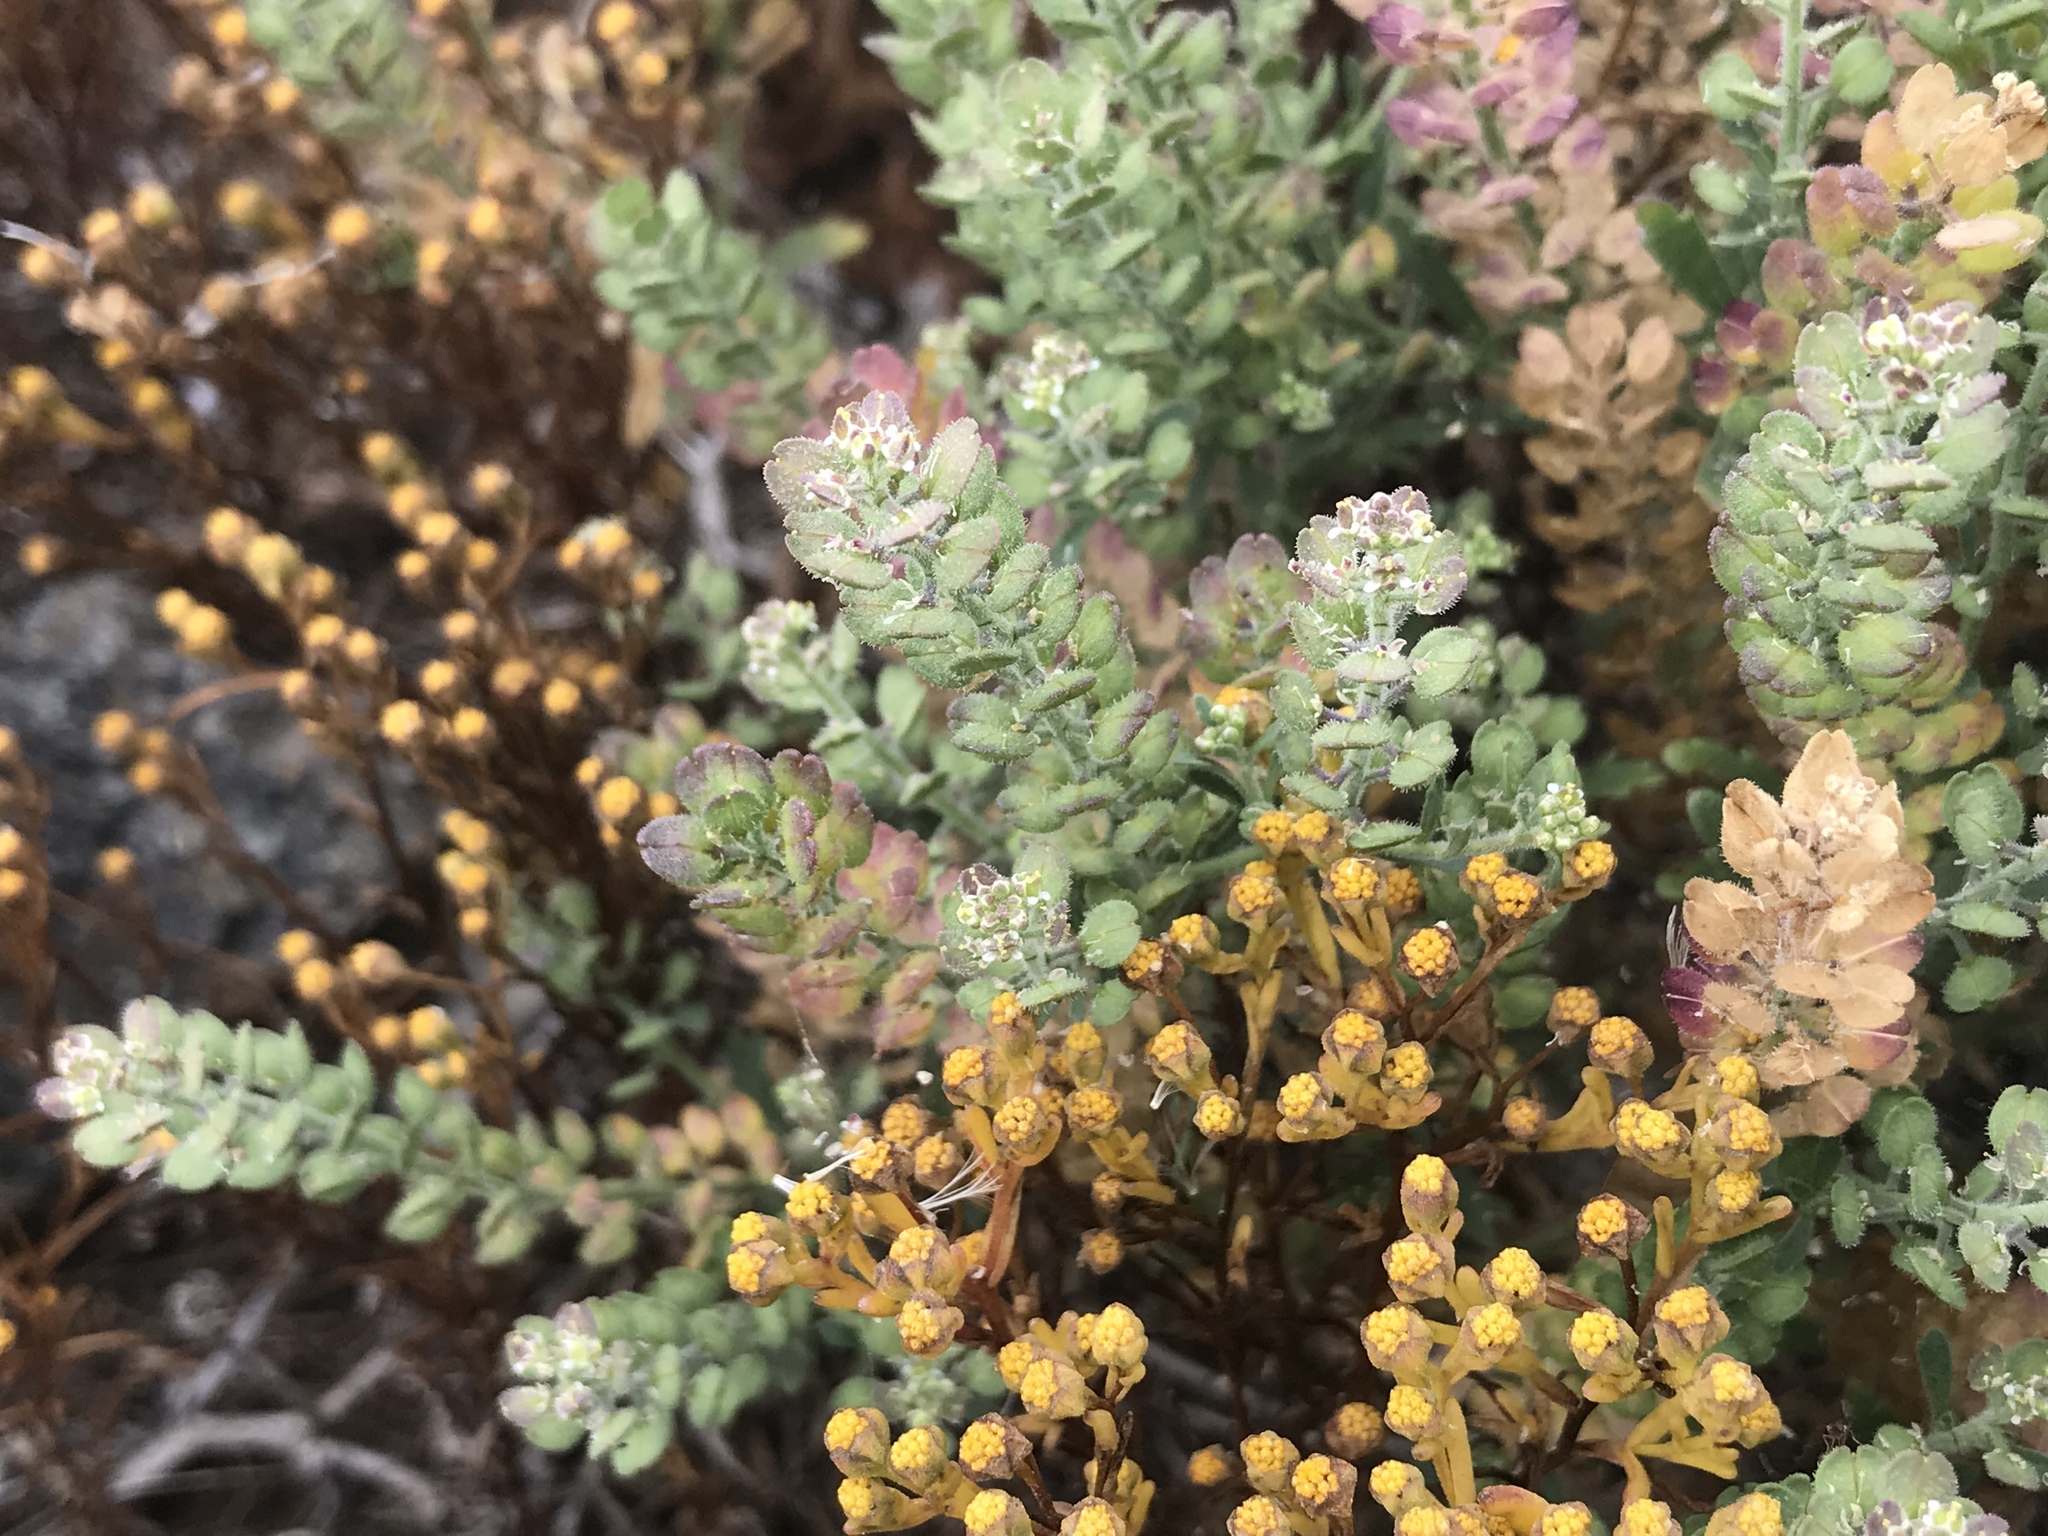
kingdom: Plantae
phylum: Tracheophyta
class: Magnoliopsida
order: Brassicales
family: Brassicaceae
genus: Lepidium
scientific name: Lepidium lasiocarpum
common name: Hairy-pod pepperwort
